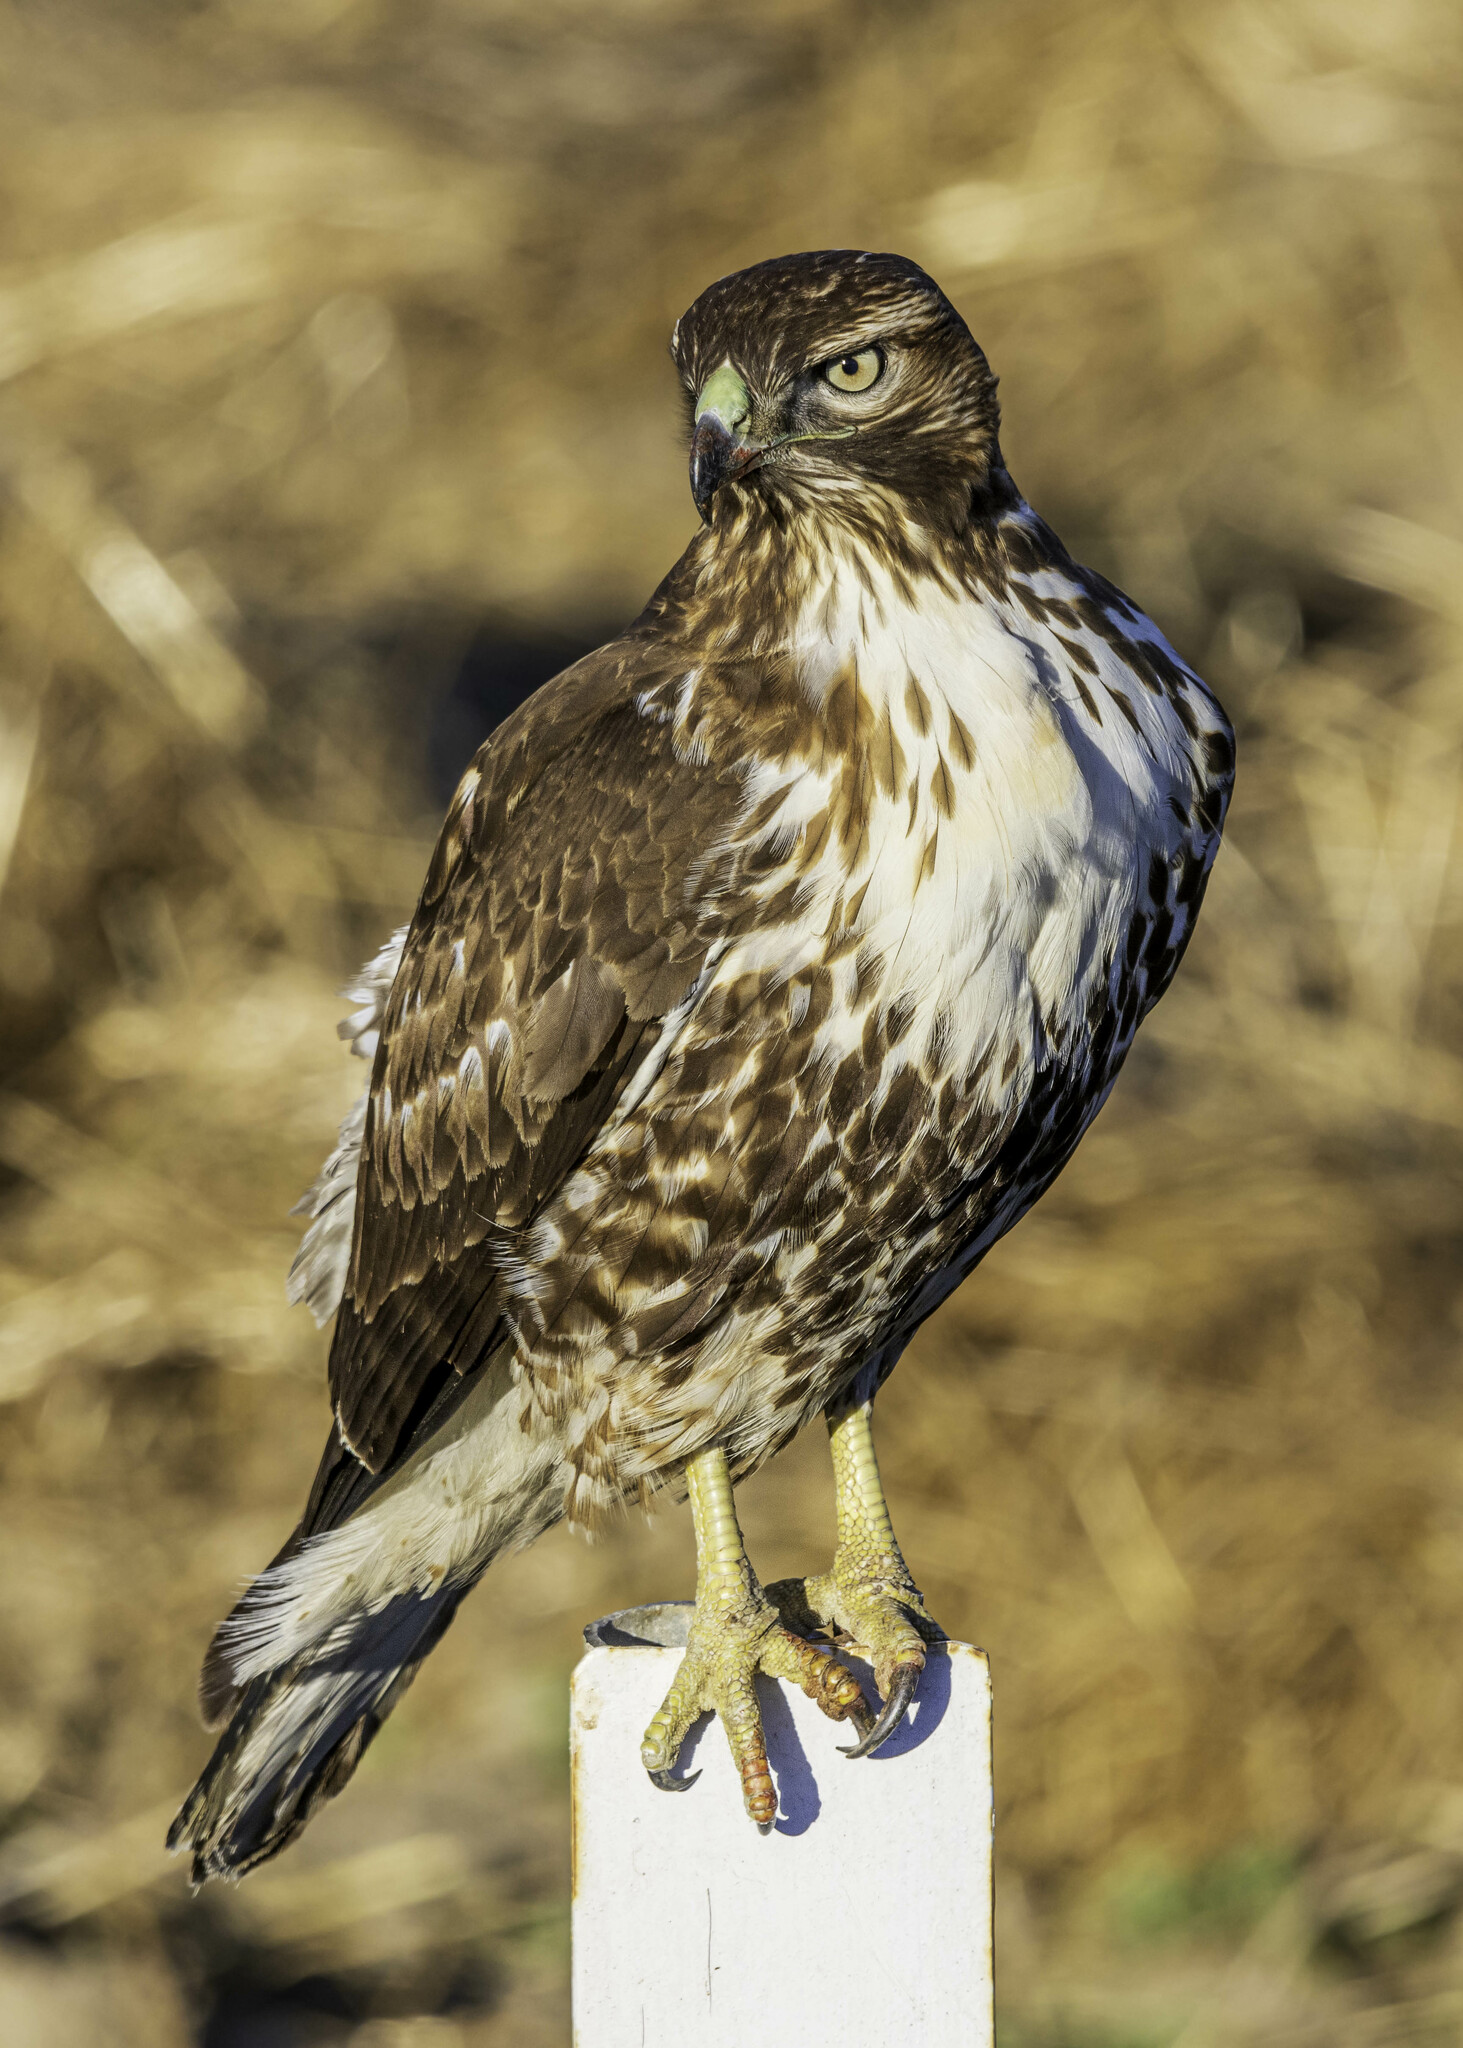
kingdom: Animalia
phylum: Chordata
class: Aves
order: Accipitriformes
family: Accipitridae
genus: Buteo
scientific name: Buteo jamaicensis
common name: Red-tailed hawk
